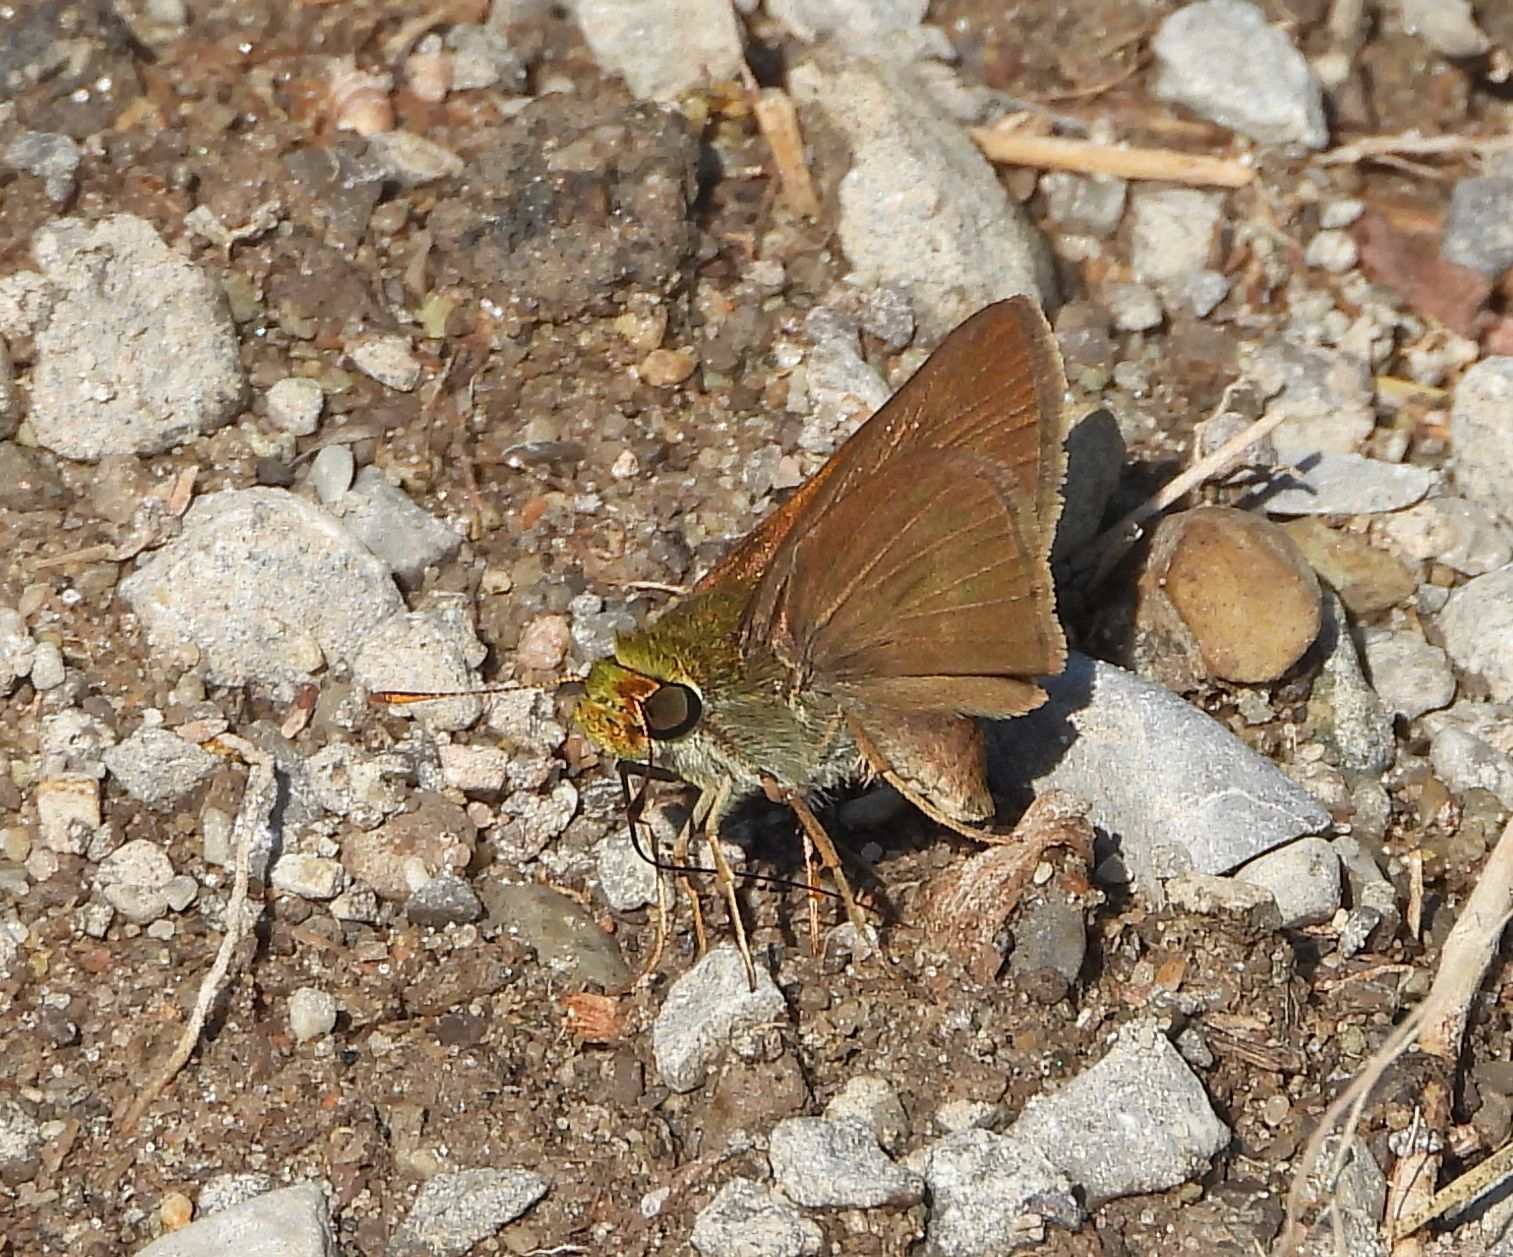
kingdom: Animalia
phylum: Arthropoda
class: Insecta
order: Lepidoptera
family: Hesperiidae
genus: Euphyes
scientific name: Euphyes vestris
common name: Dun skipper
